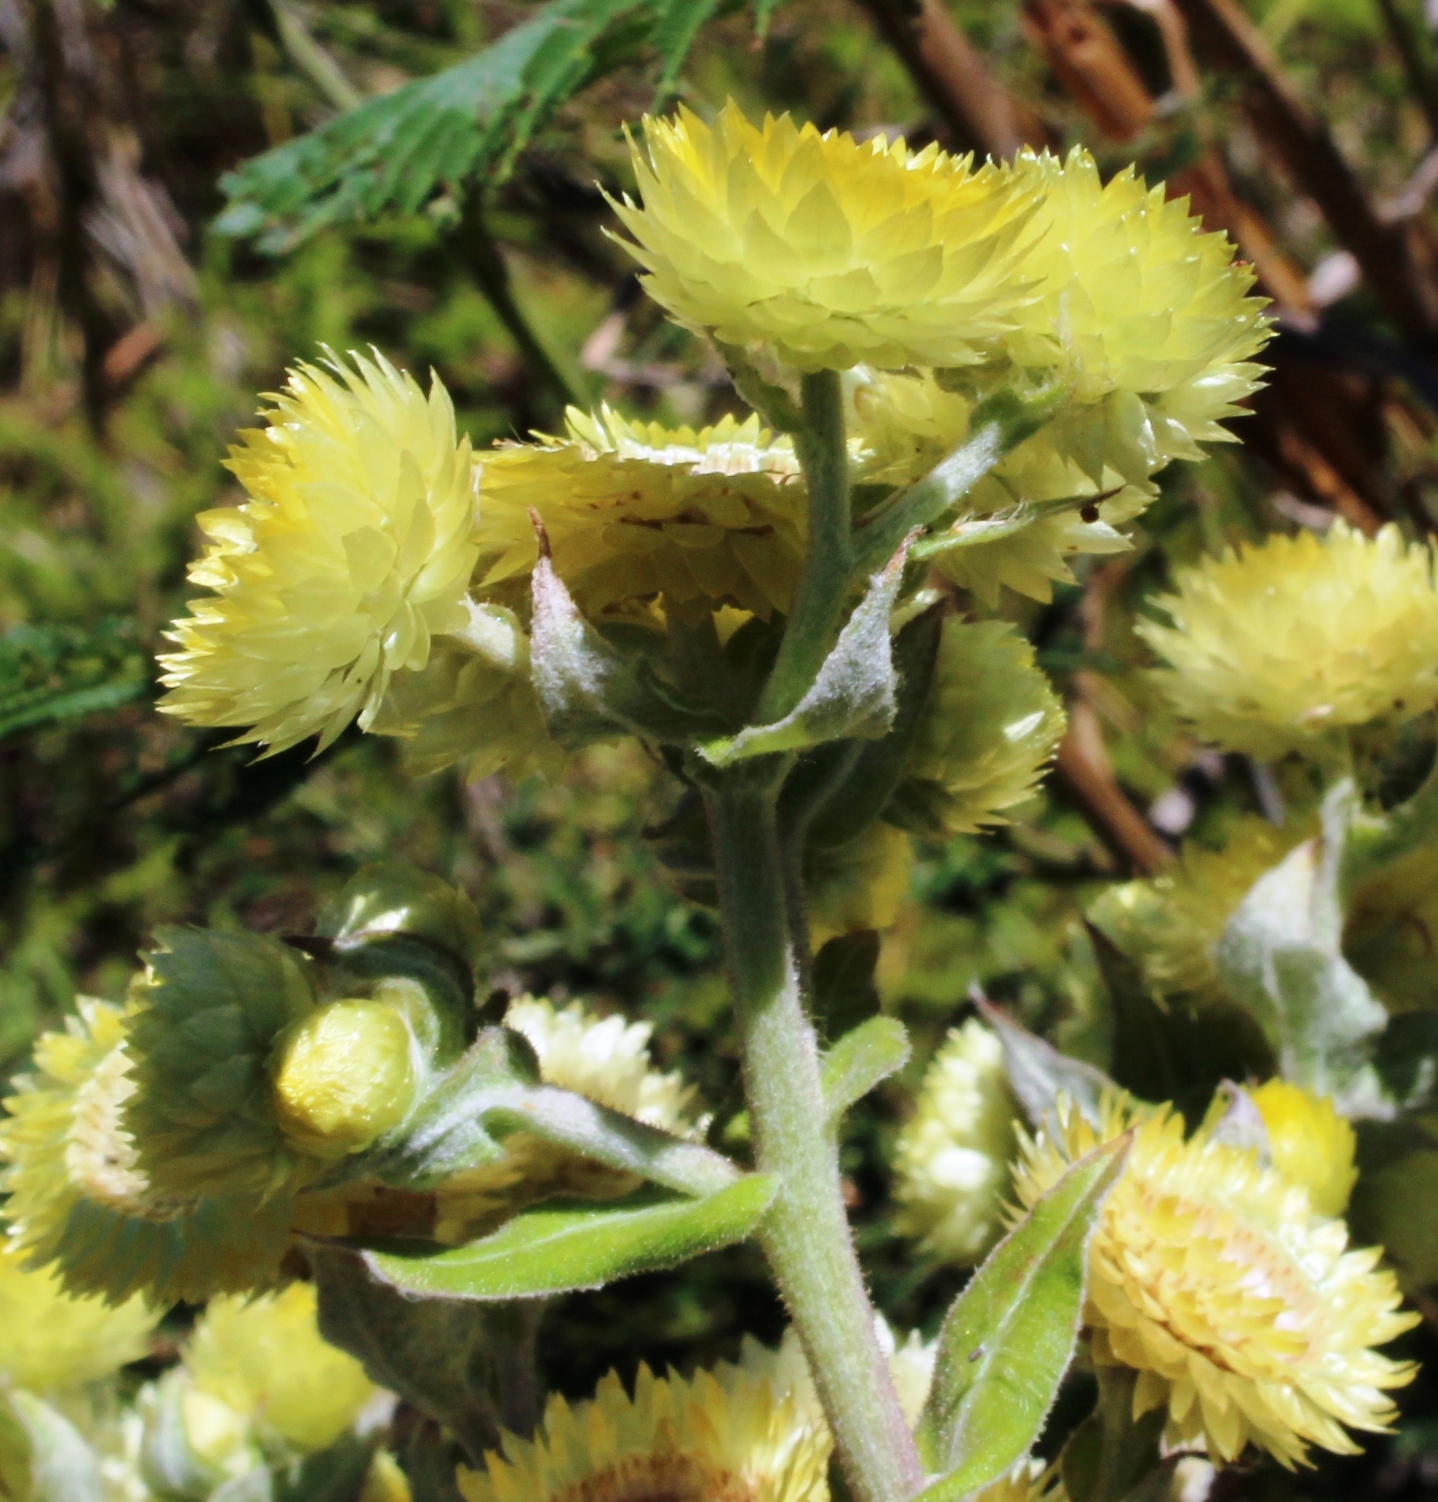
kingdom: Plantae
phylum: Tracheophyta
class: Magnoliopsida
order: Asterales
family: Asteraceae
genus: Helichrysum
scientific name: Helichrysum foetidum
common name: Stinking everlasting
